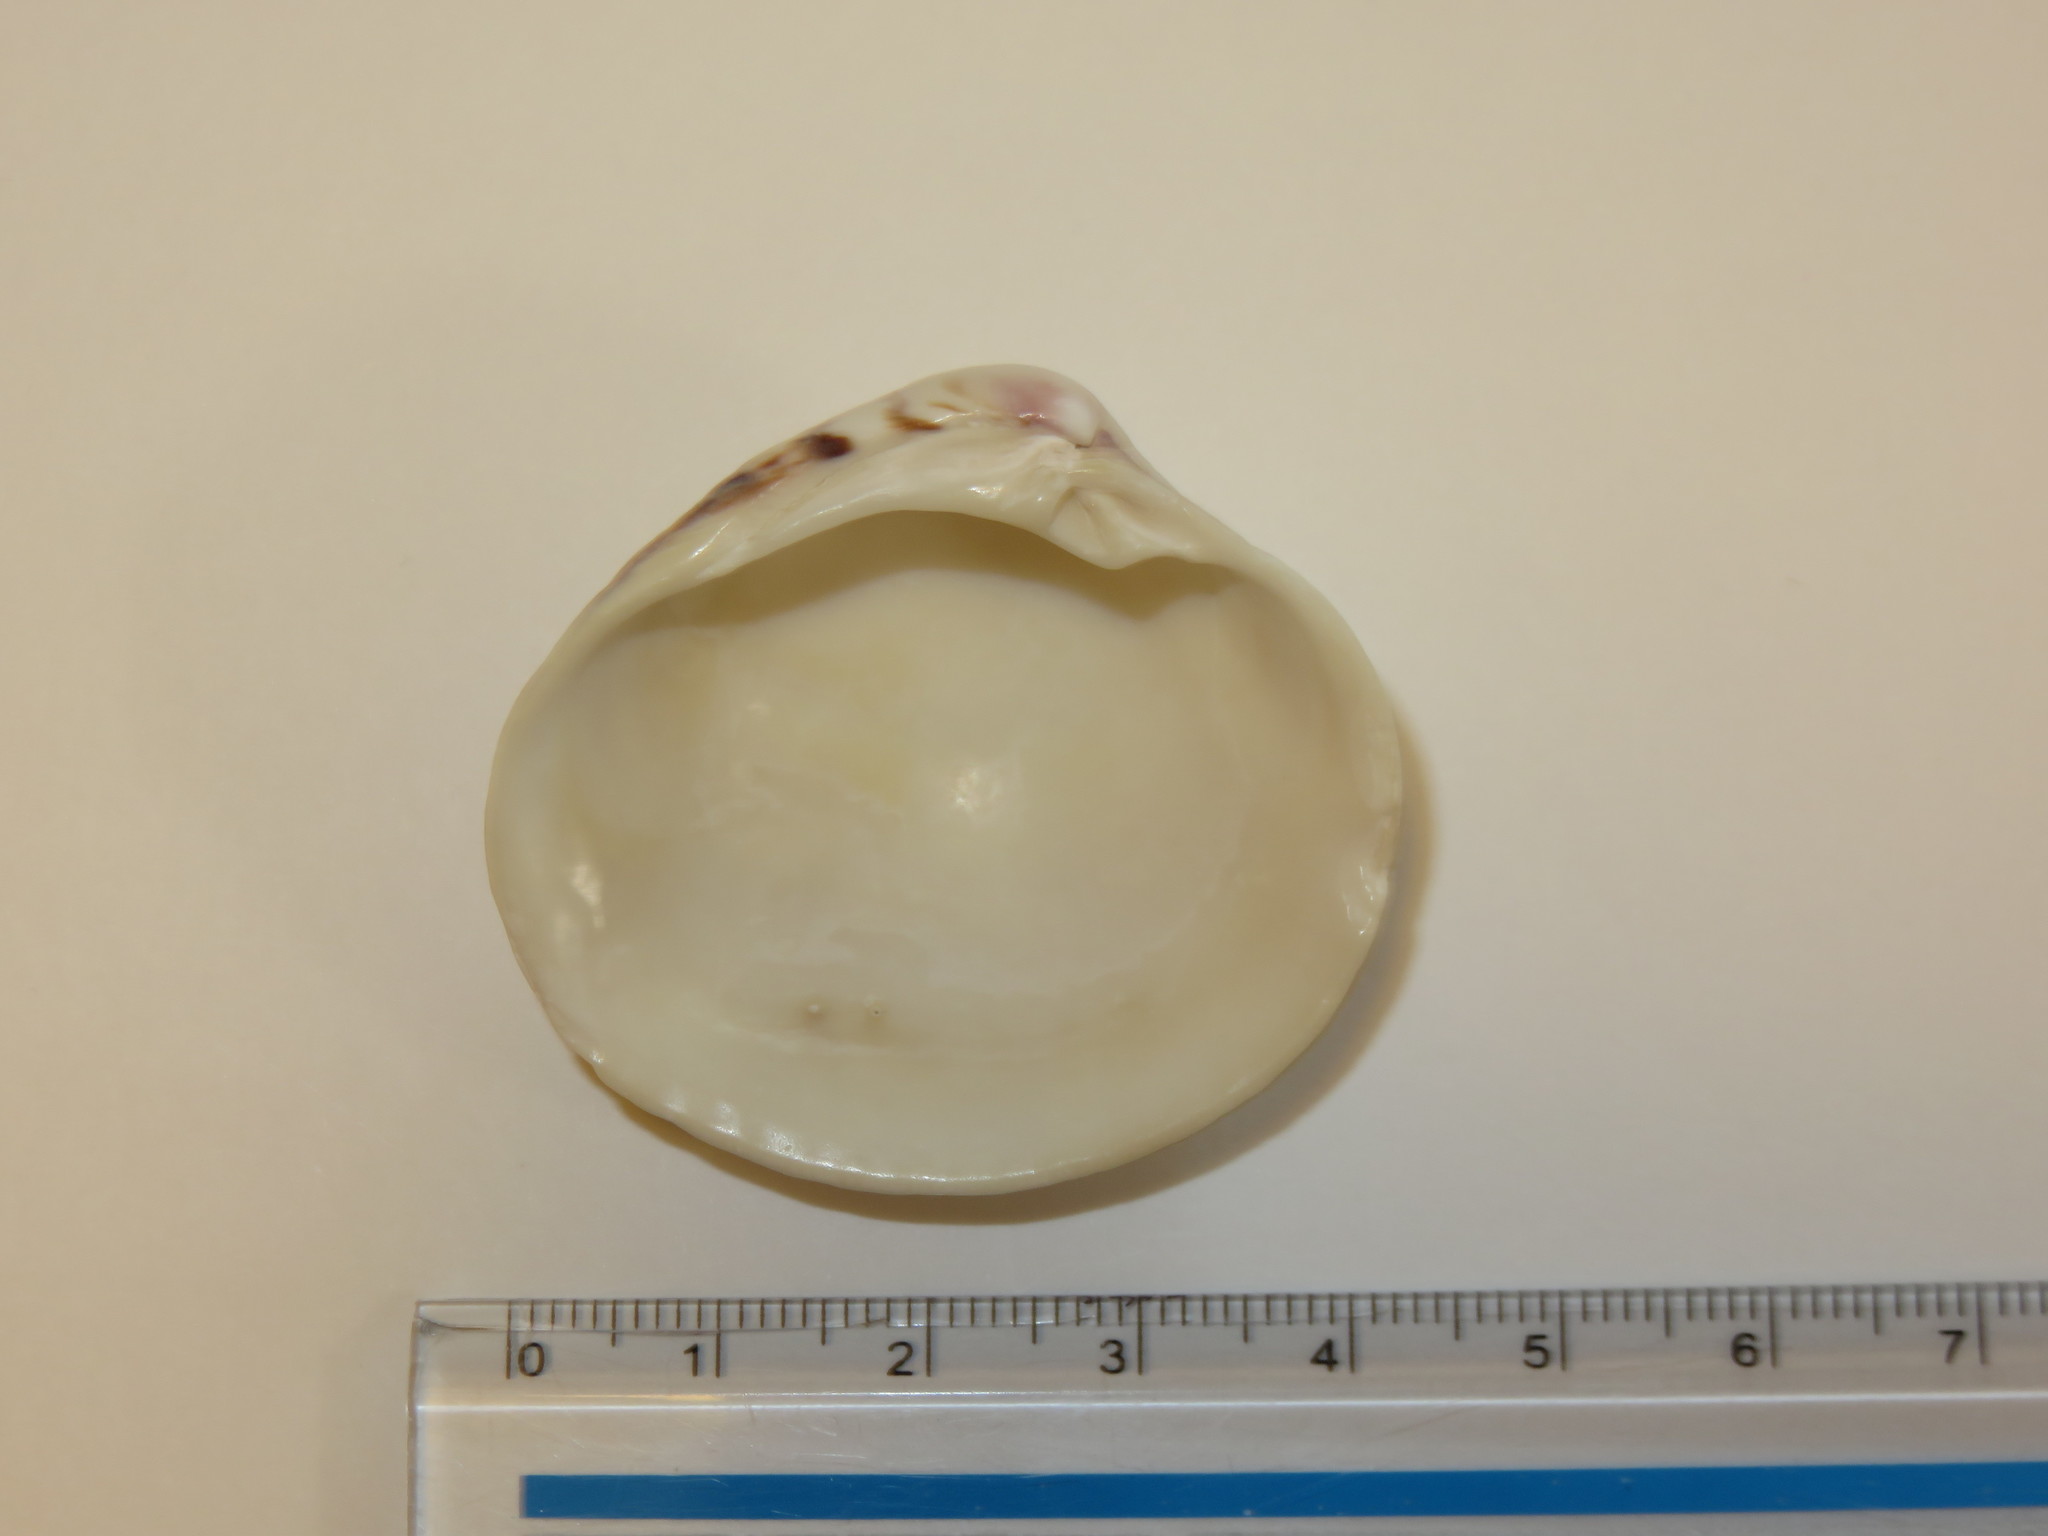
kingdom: Animalia
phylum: Mollusca
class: Bivalvia
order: Venerida
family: Veneridae
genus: Leukoma
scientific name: Leukoma jedoensis
